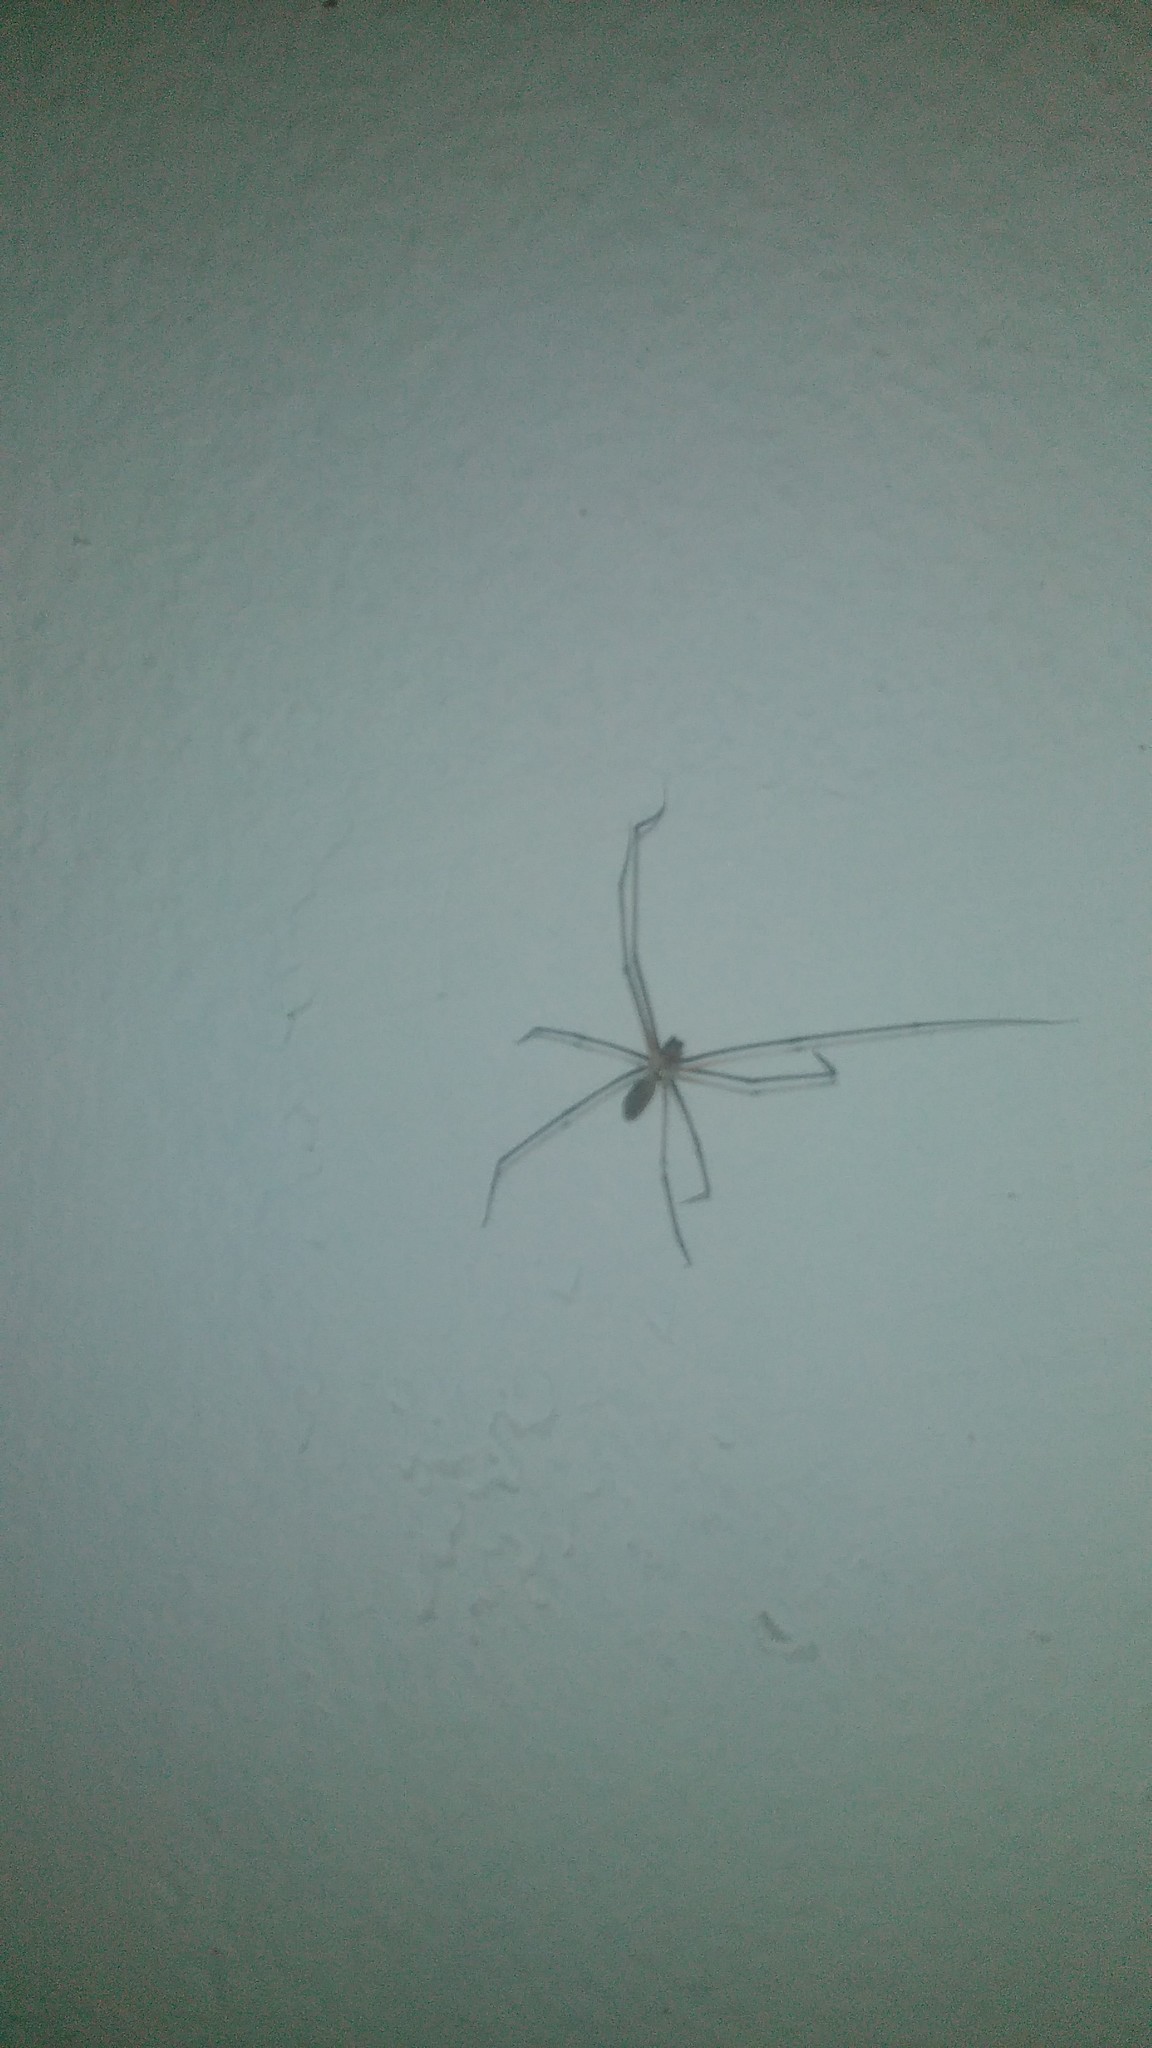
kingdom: Animalia
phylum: Arthropoda
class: Arachnida
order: Araneae
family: Pholcidae
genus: Pholcus
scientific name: Pholcus phalangioides
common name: Longbodied cellar spider
